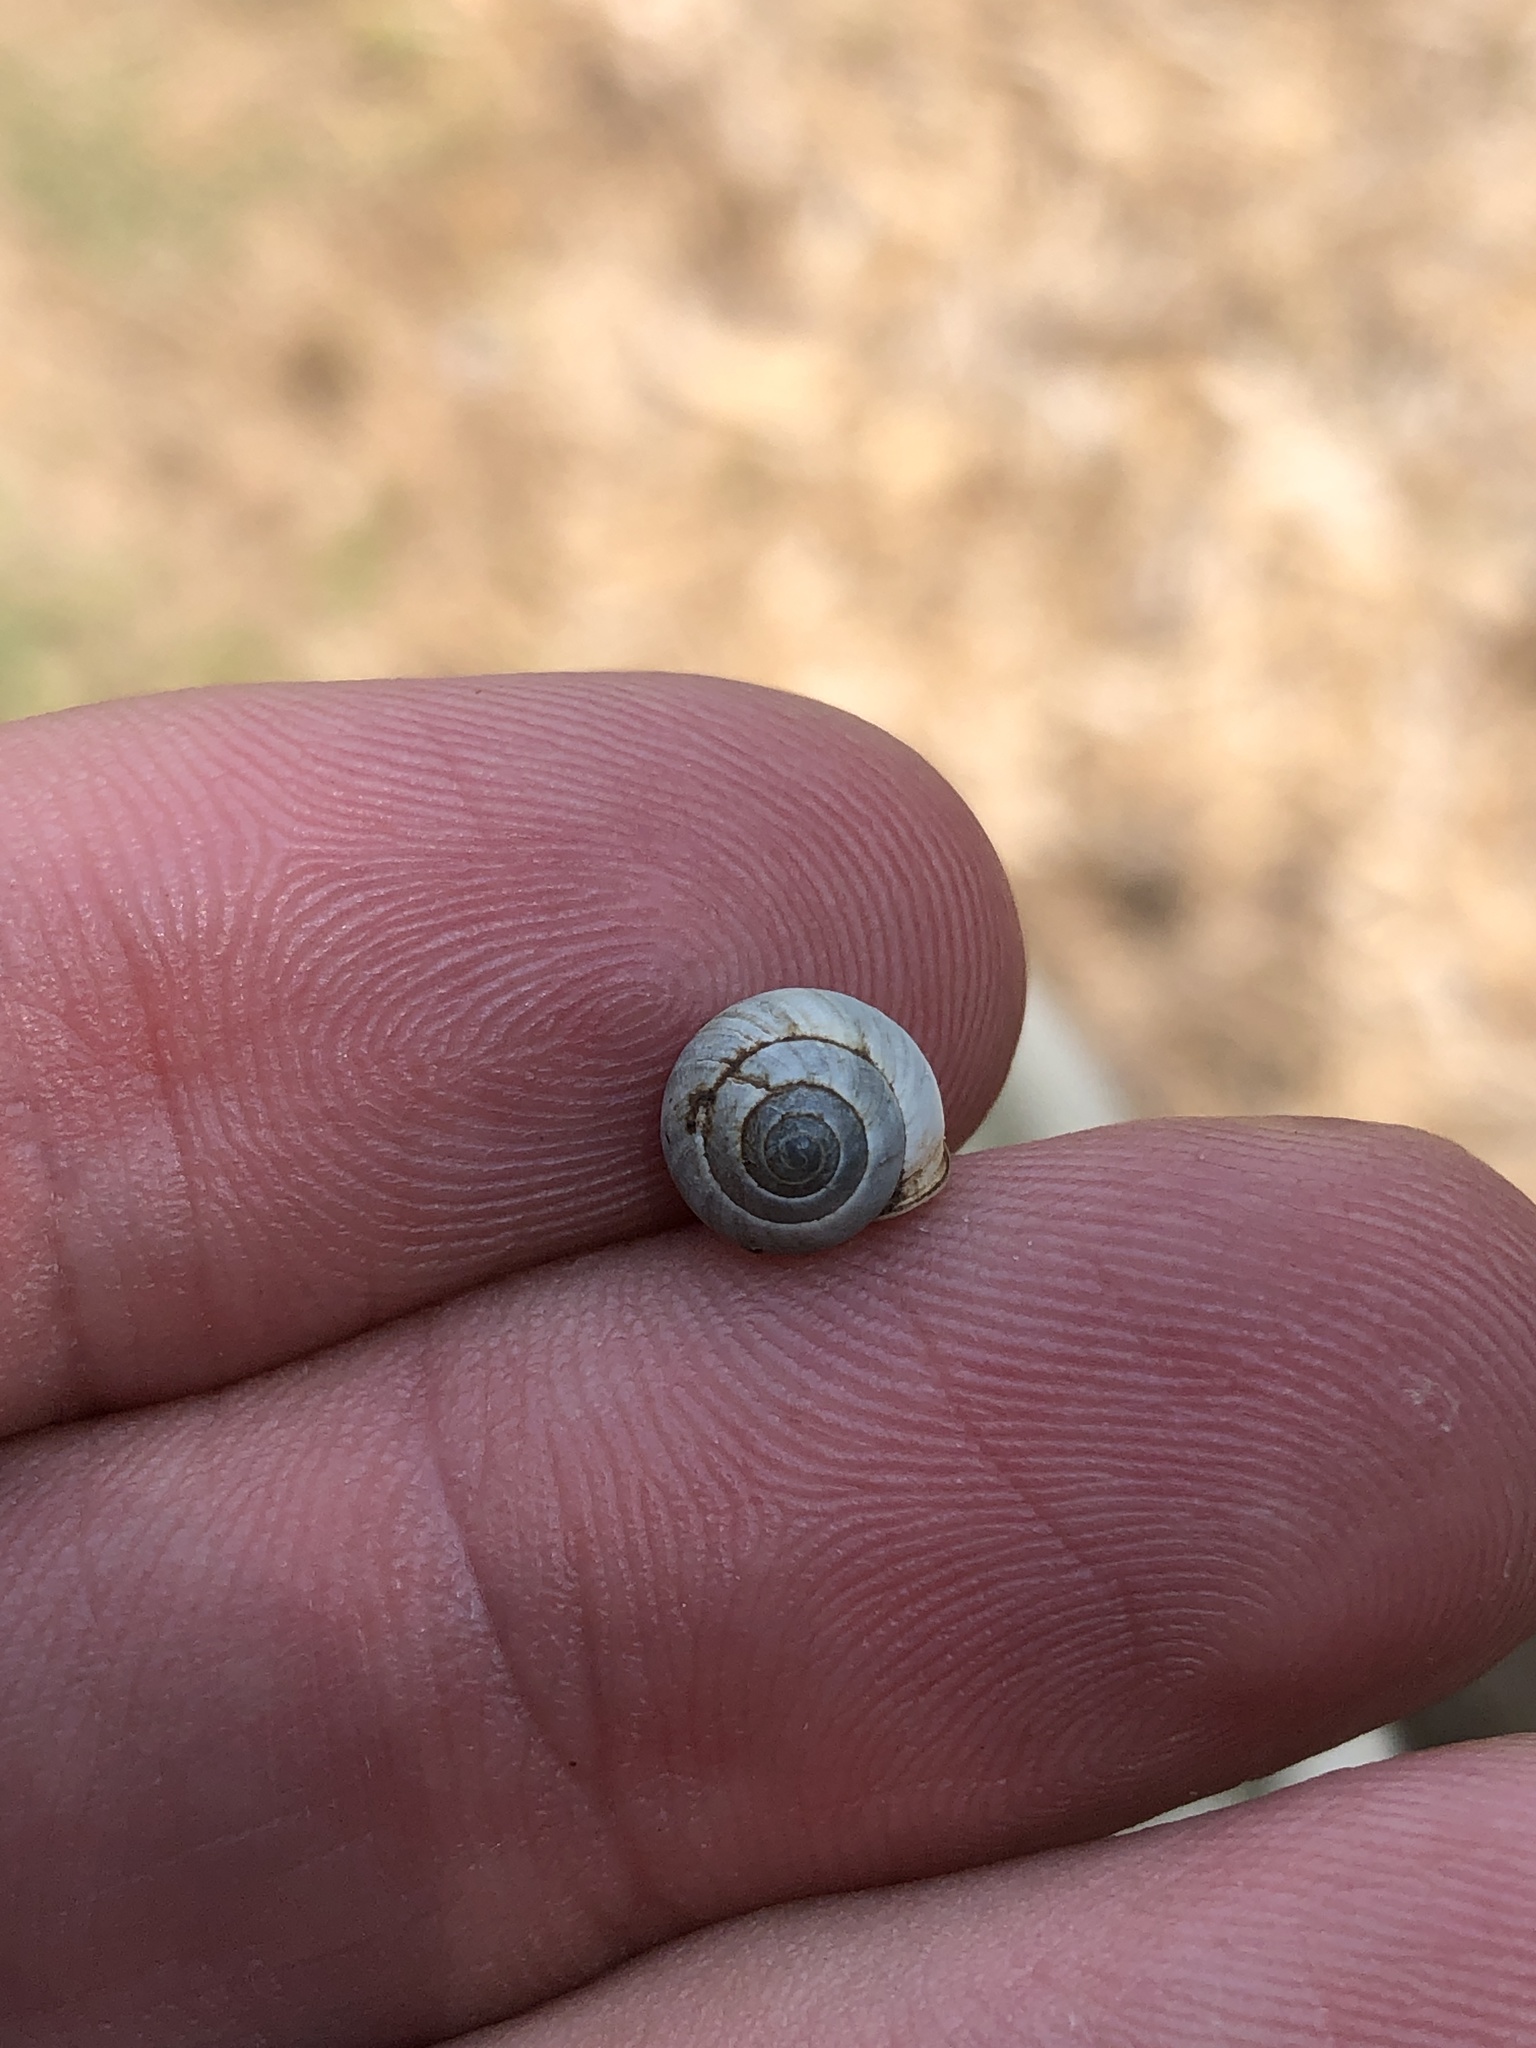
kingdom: Animalia
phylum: Mollusca
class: Gastropoda
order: Cycloneritida
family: Helicinidae
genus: Helicina
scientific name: Helicina orbiculata
